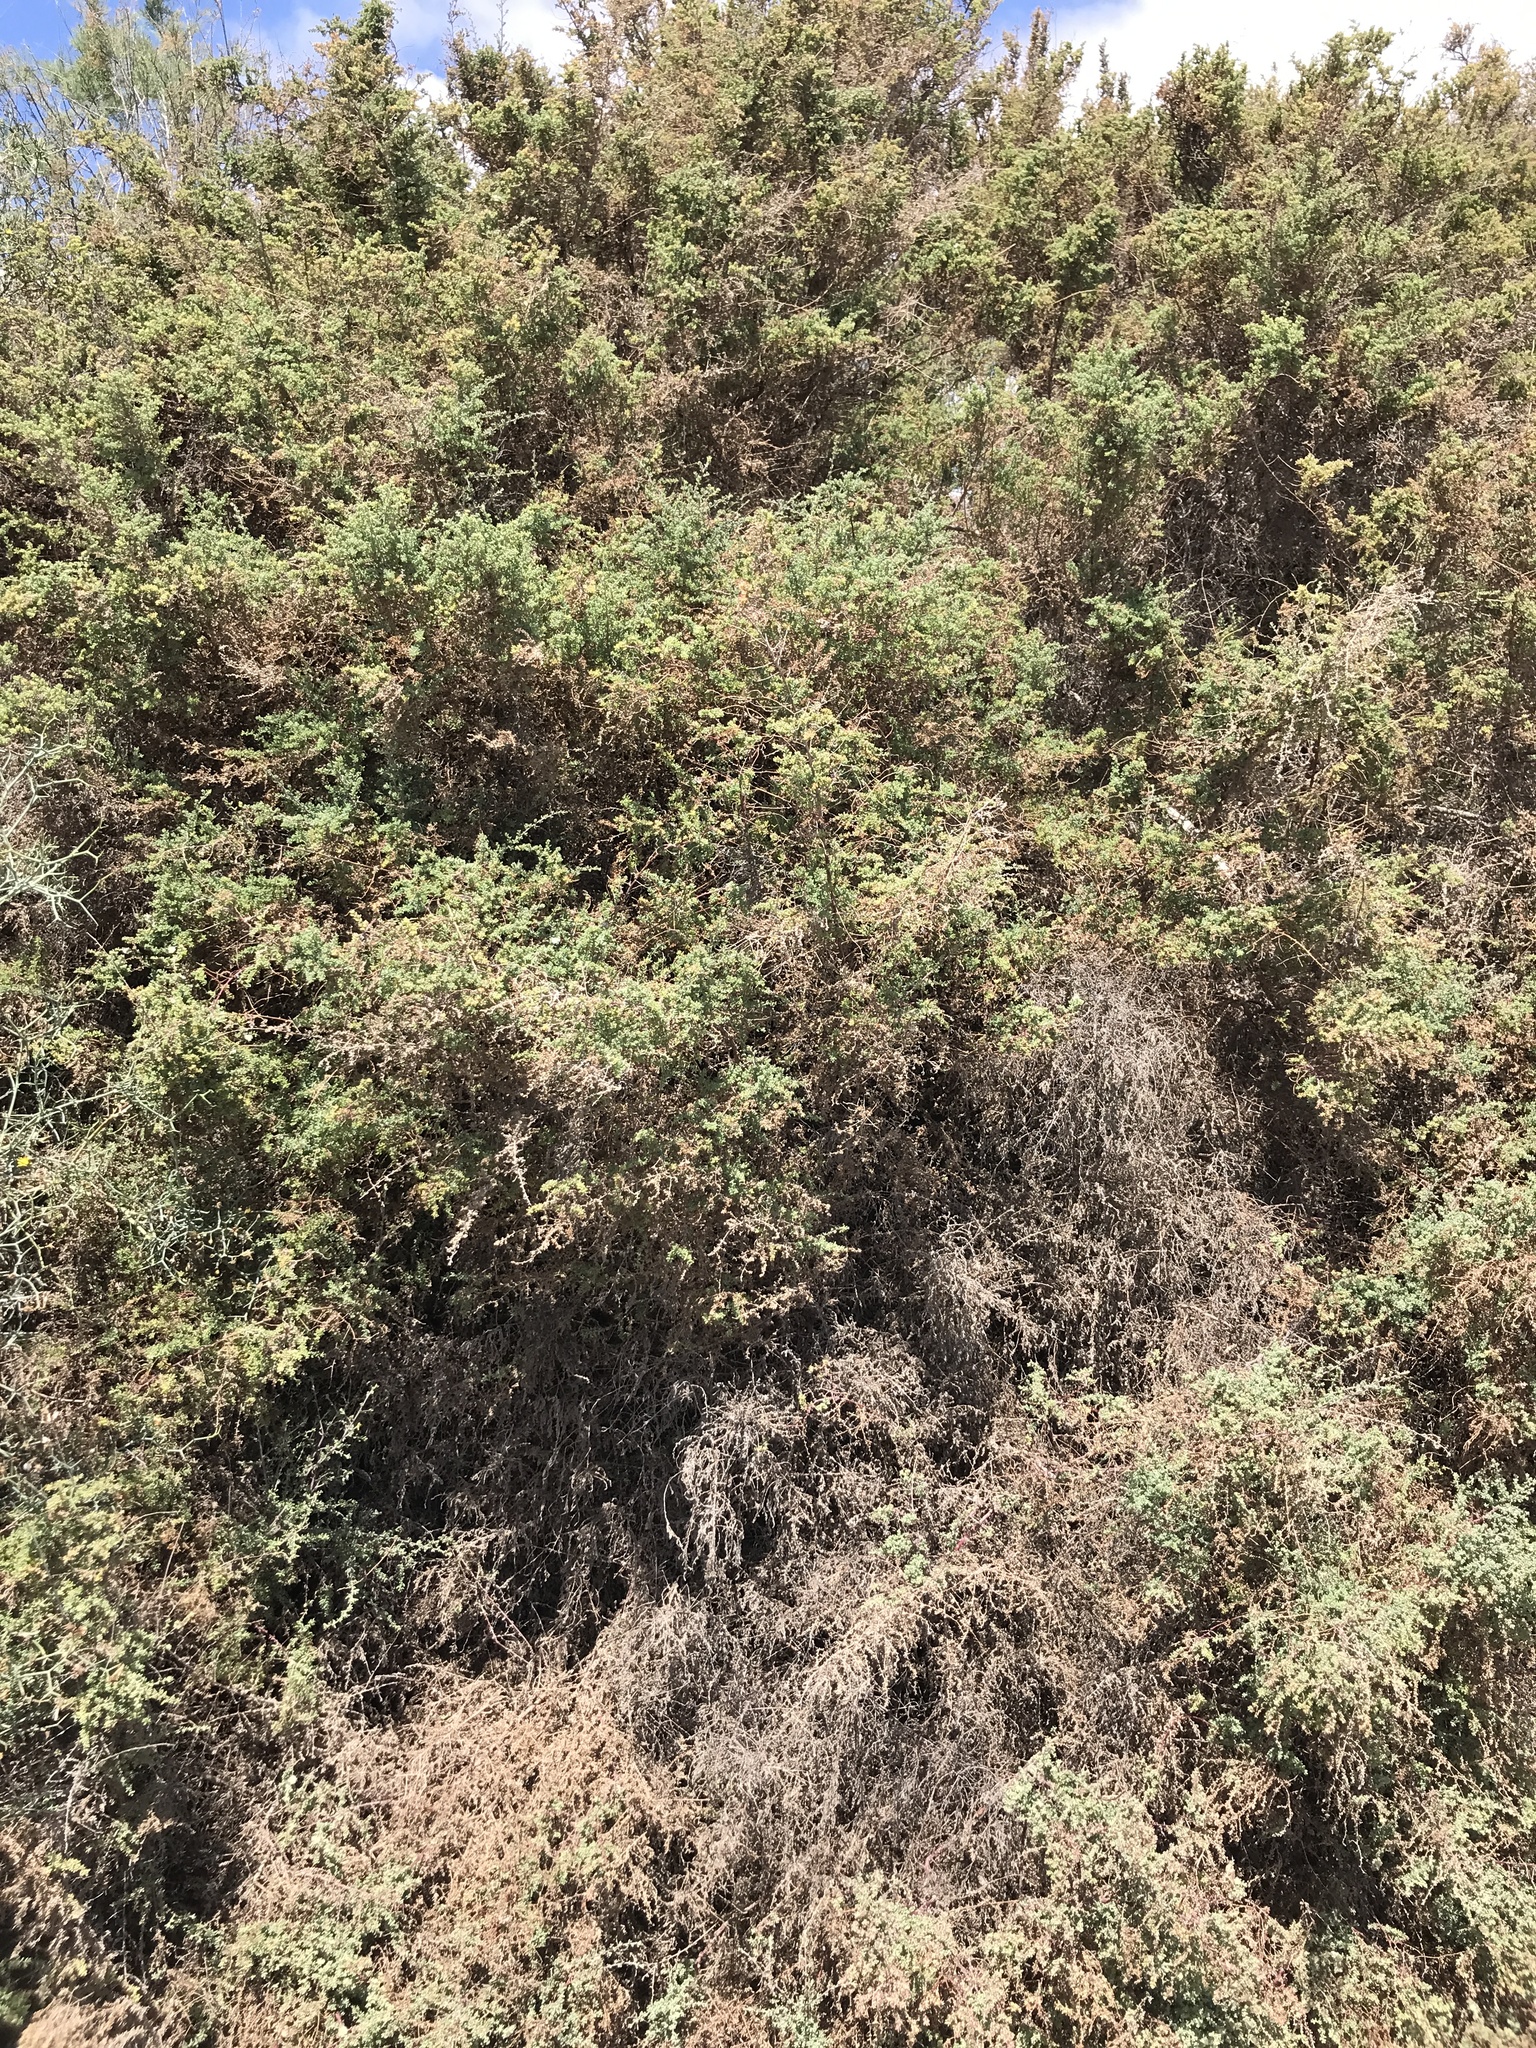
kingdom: Plantae
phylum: Tracheophyta
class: Magnoliopsida
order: Caryophyllales
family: Amaranthaceae
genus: Maireana
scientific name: Maireana brevifolia
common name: Eastern cottonbush
